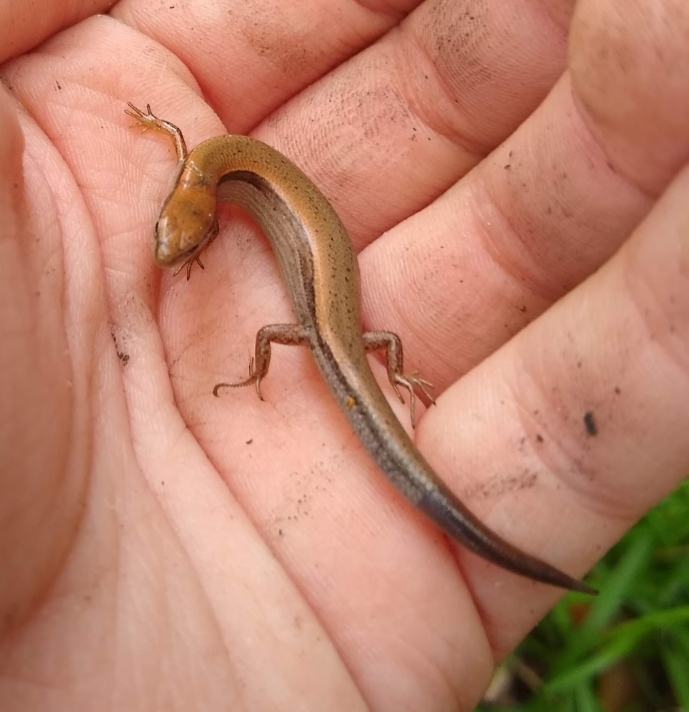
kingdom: Animalia
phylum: Chordata
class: Squamata
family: Scincidae
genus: Scincella
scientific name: Scincella lateralis
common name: Ground skink
